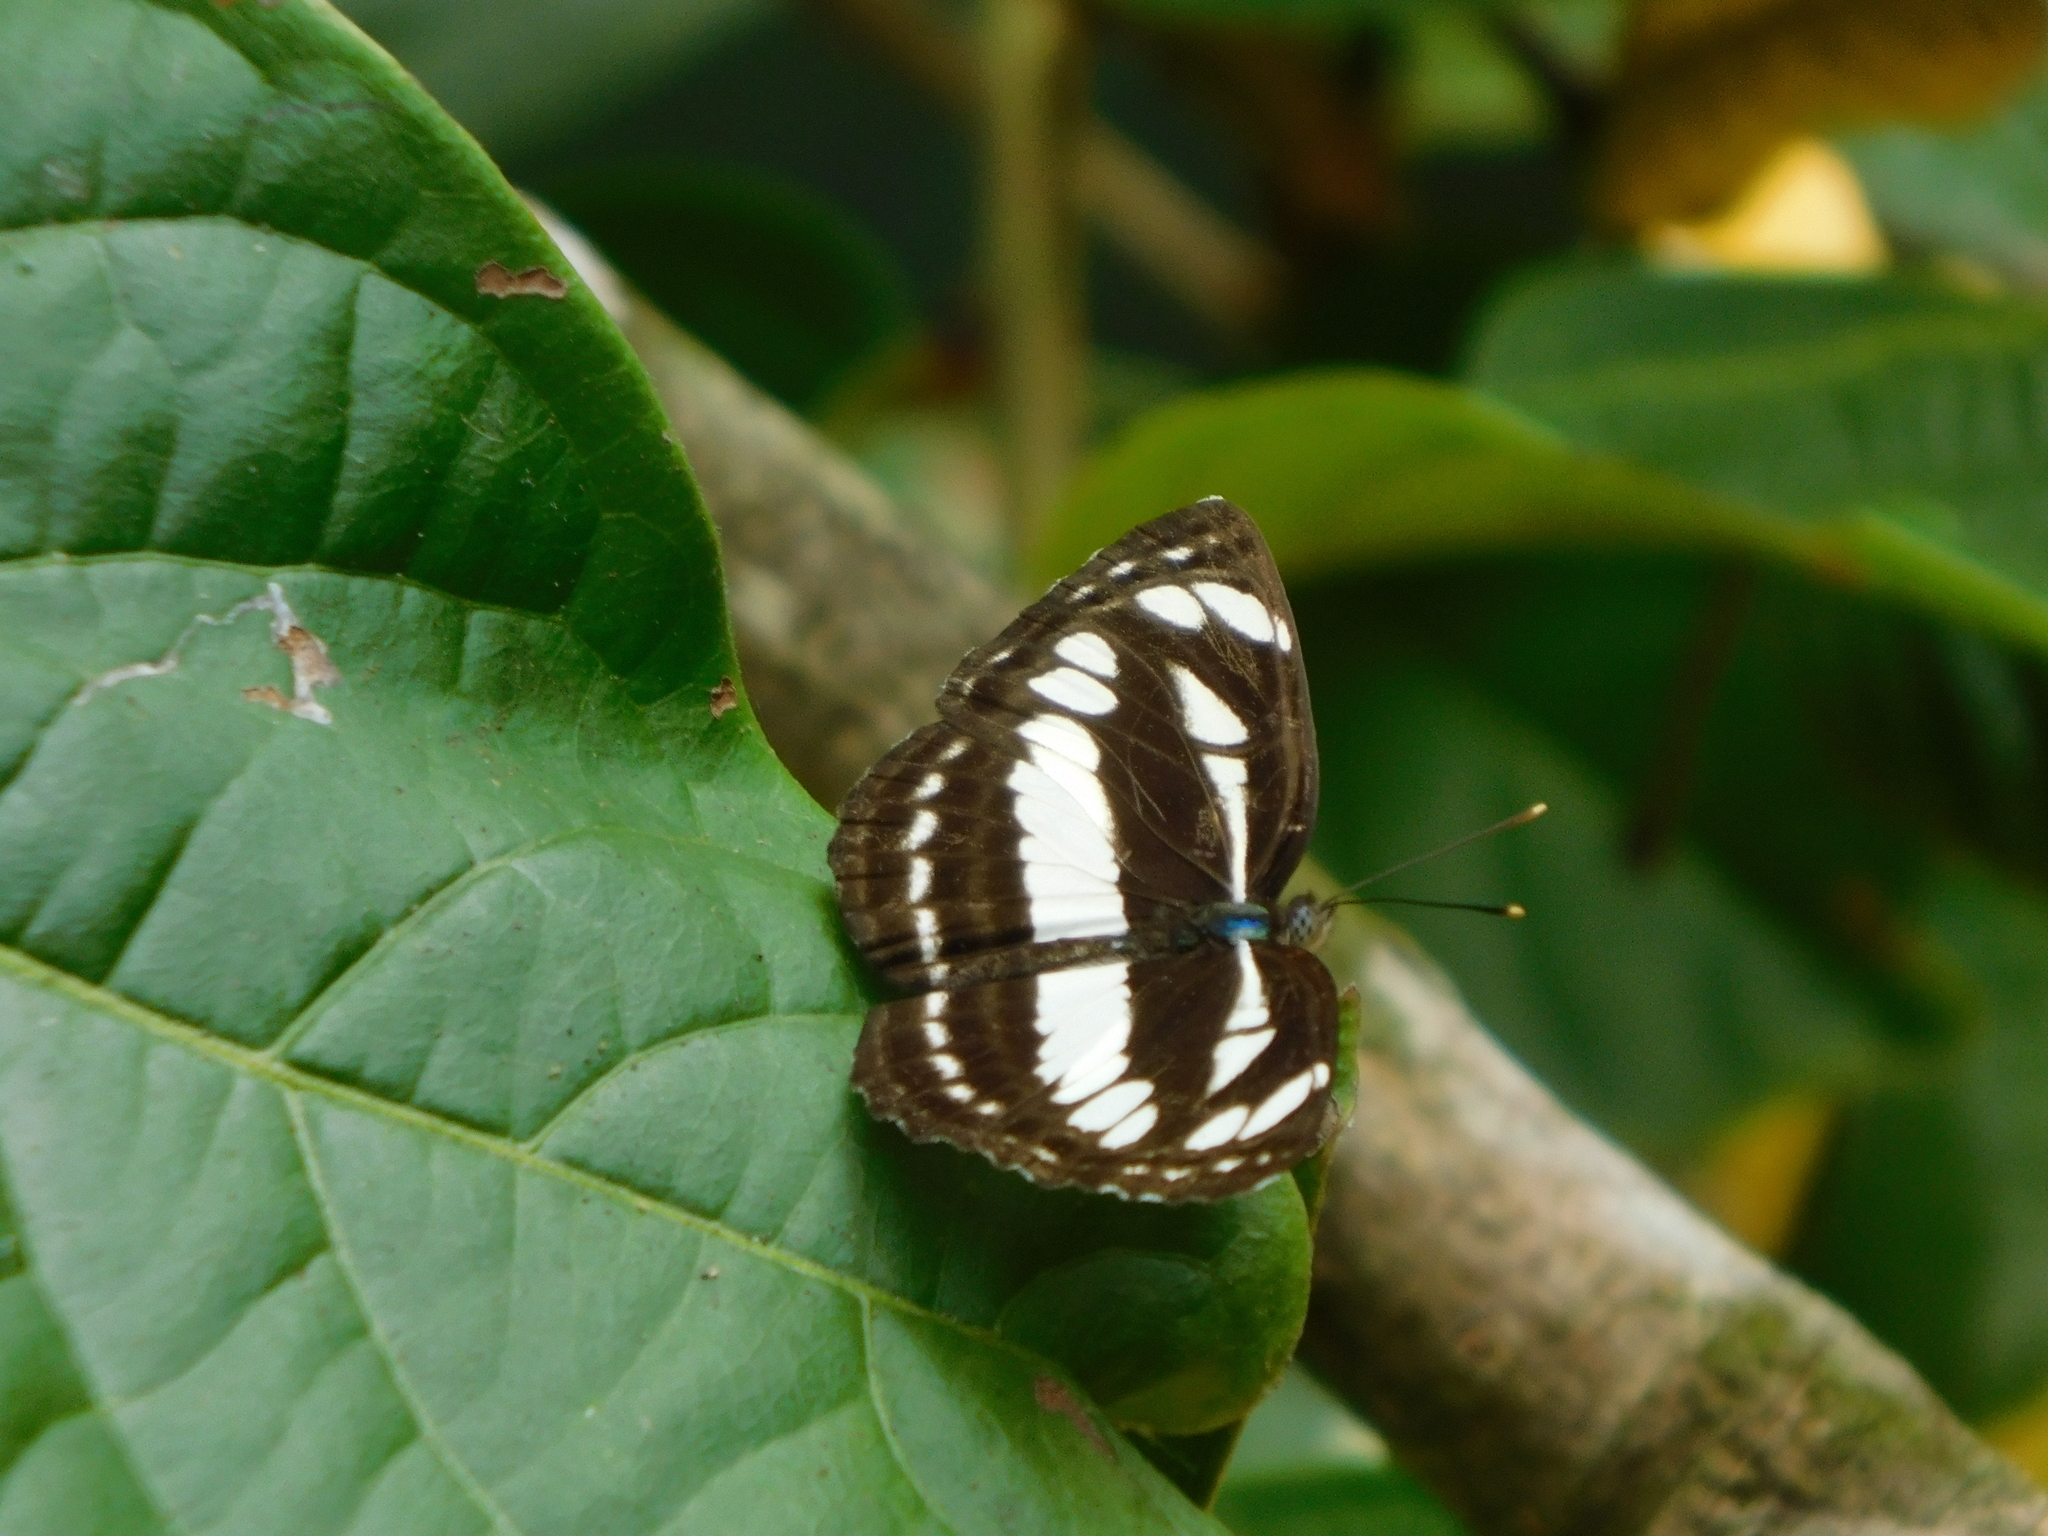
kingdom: Animalia
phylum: Arthropoda
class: Insecta
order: Lepidoptera
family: Nymphalidae
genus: Neptis
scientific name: Neptis jumbah
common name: Chestnut-streaked sailer
